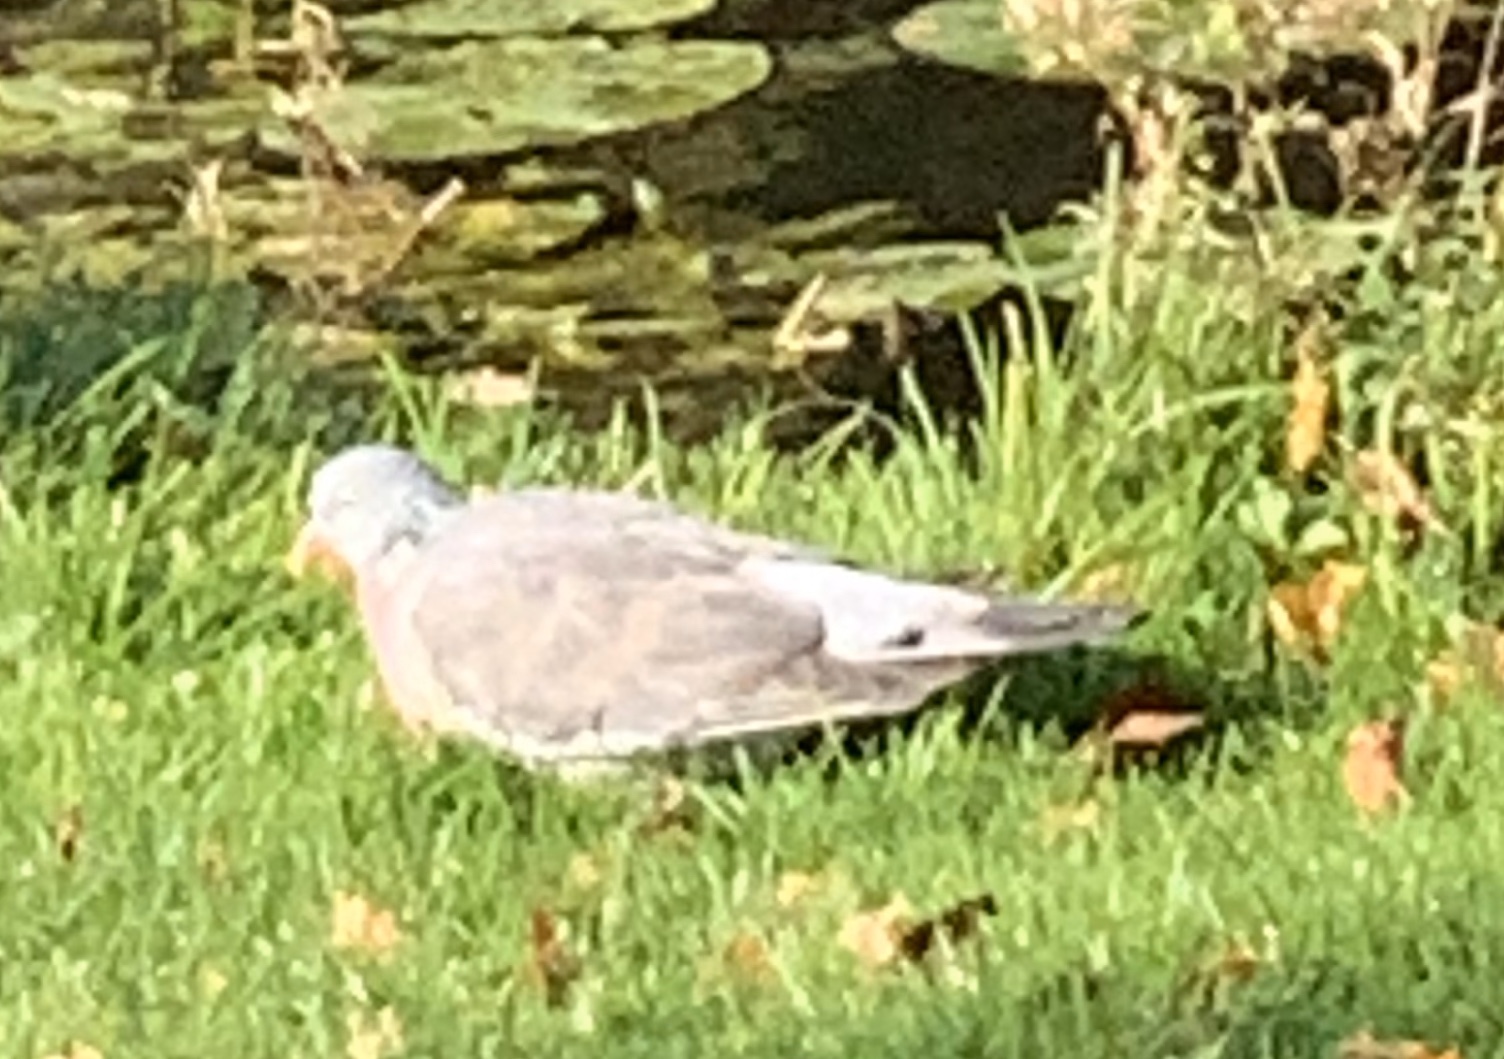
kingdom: Animalia
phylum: Chordata
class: Aves
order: Columbiformes
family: Columbidae
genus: Columba
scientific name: Columba palumbus
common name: Common wood pigeon
